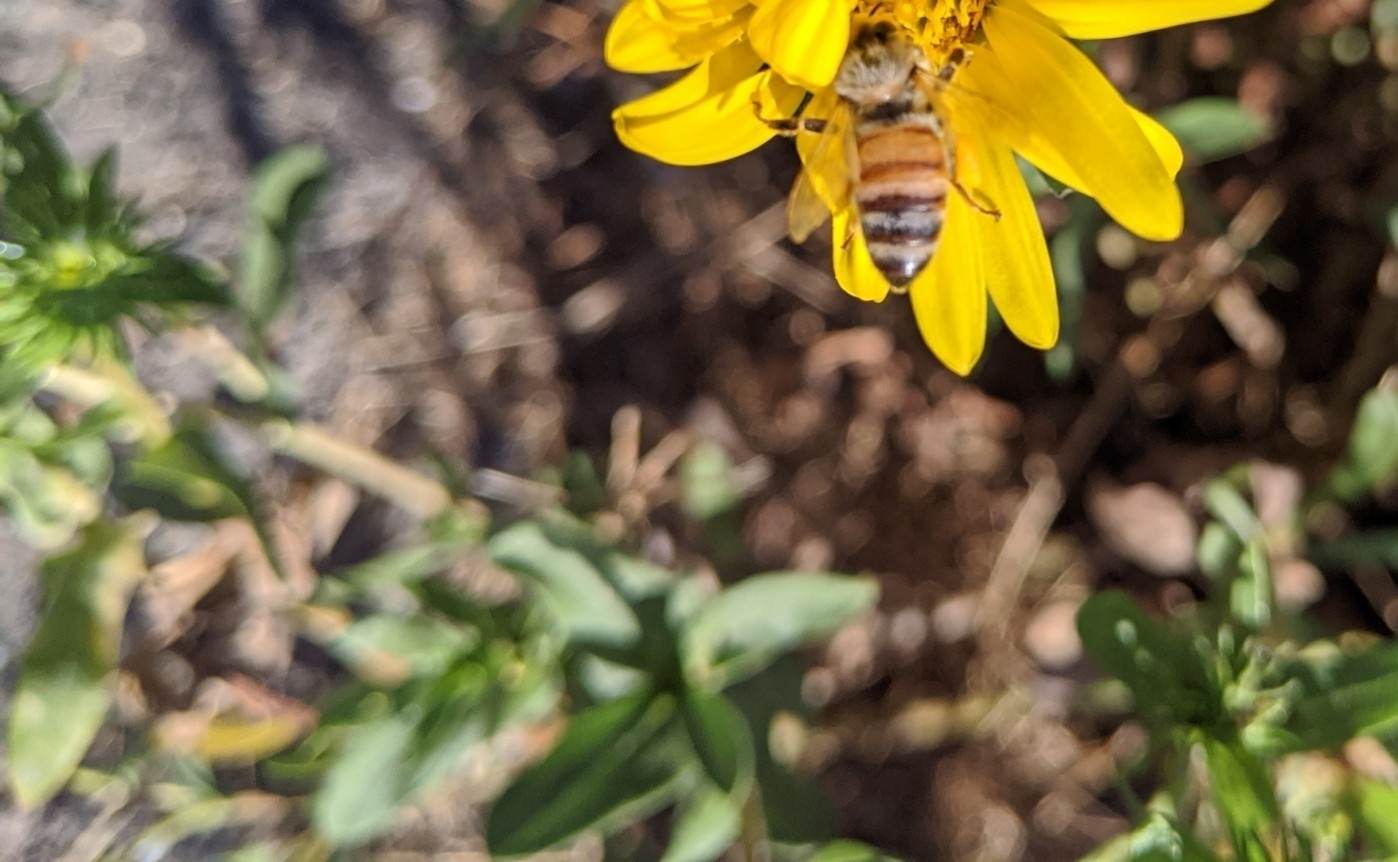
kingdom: Animalia
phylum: Arthropoda
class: Insecta
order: Hymenoptera
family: Apidae
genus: Apis
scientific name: Apis mellifera
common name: Honey bee
